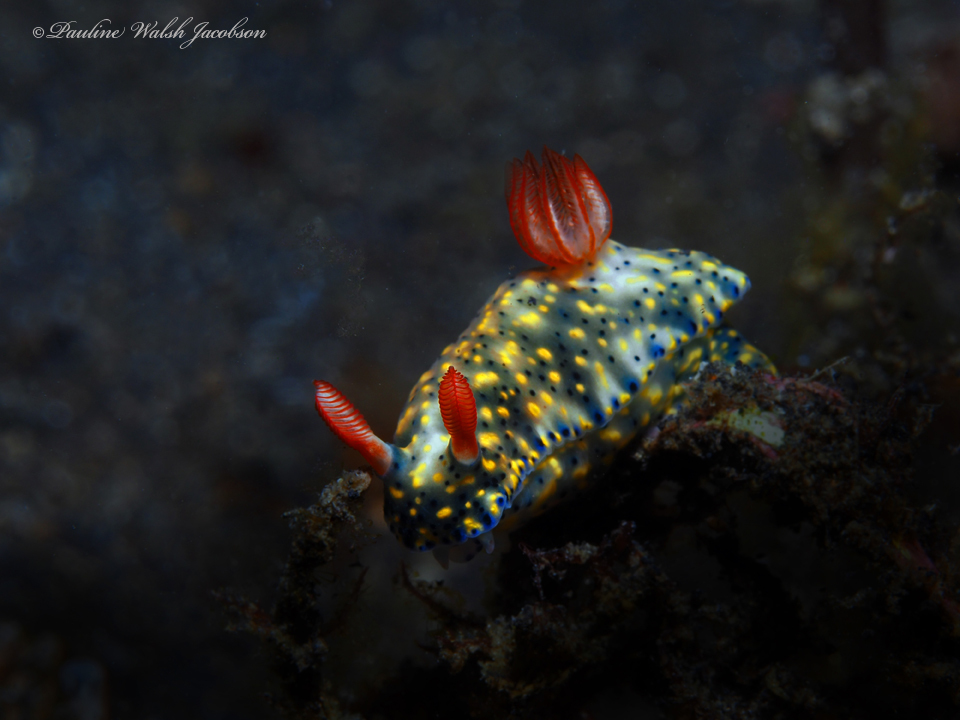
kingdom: Animalia
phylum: Mollusca
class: Gastropoda
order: Nudibranchia
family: Chromodorididae
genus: Hypselodoris
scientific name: Hypselodoris infucata
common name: Mottled dorid
